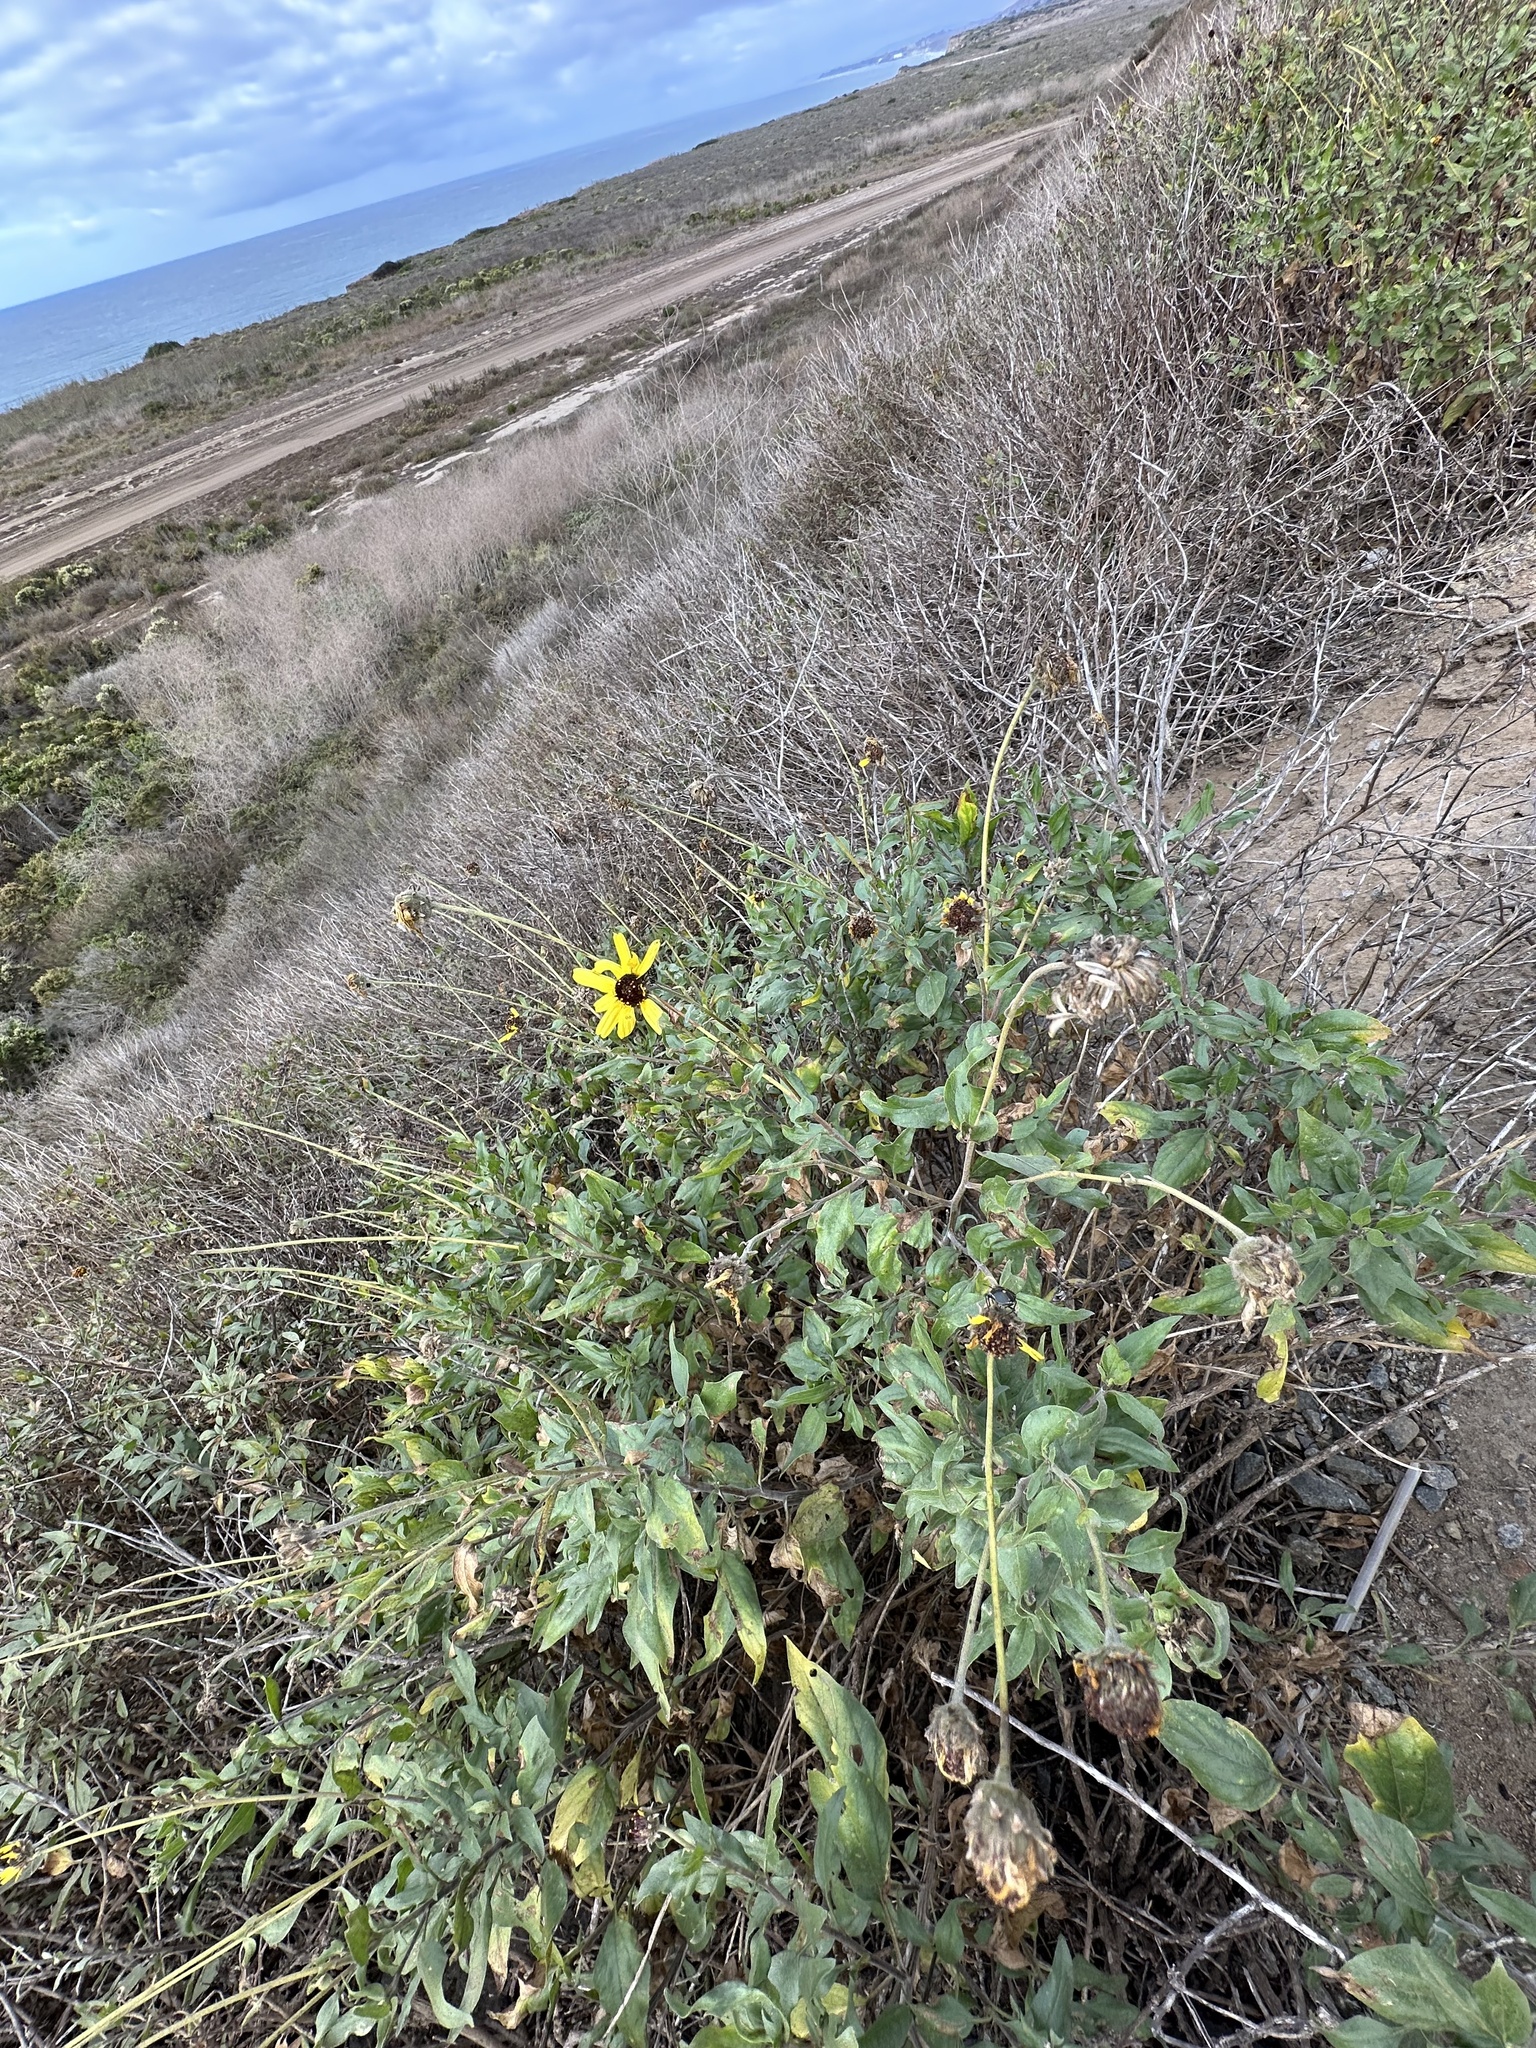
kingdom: Plantae
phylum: Tracheophyta
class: Magnoliopsida
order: Asterales
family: Asteraceae
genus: Encelia
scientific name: Encelia californica
